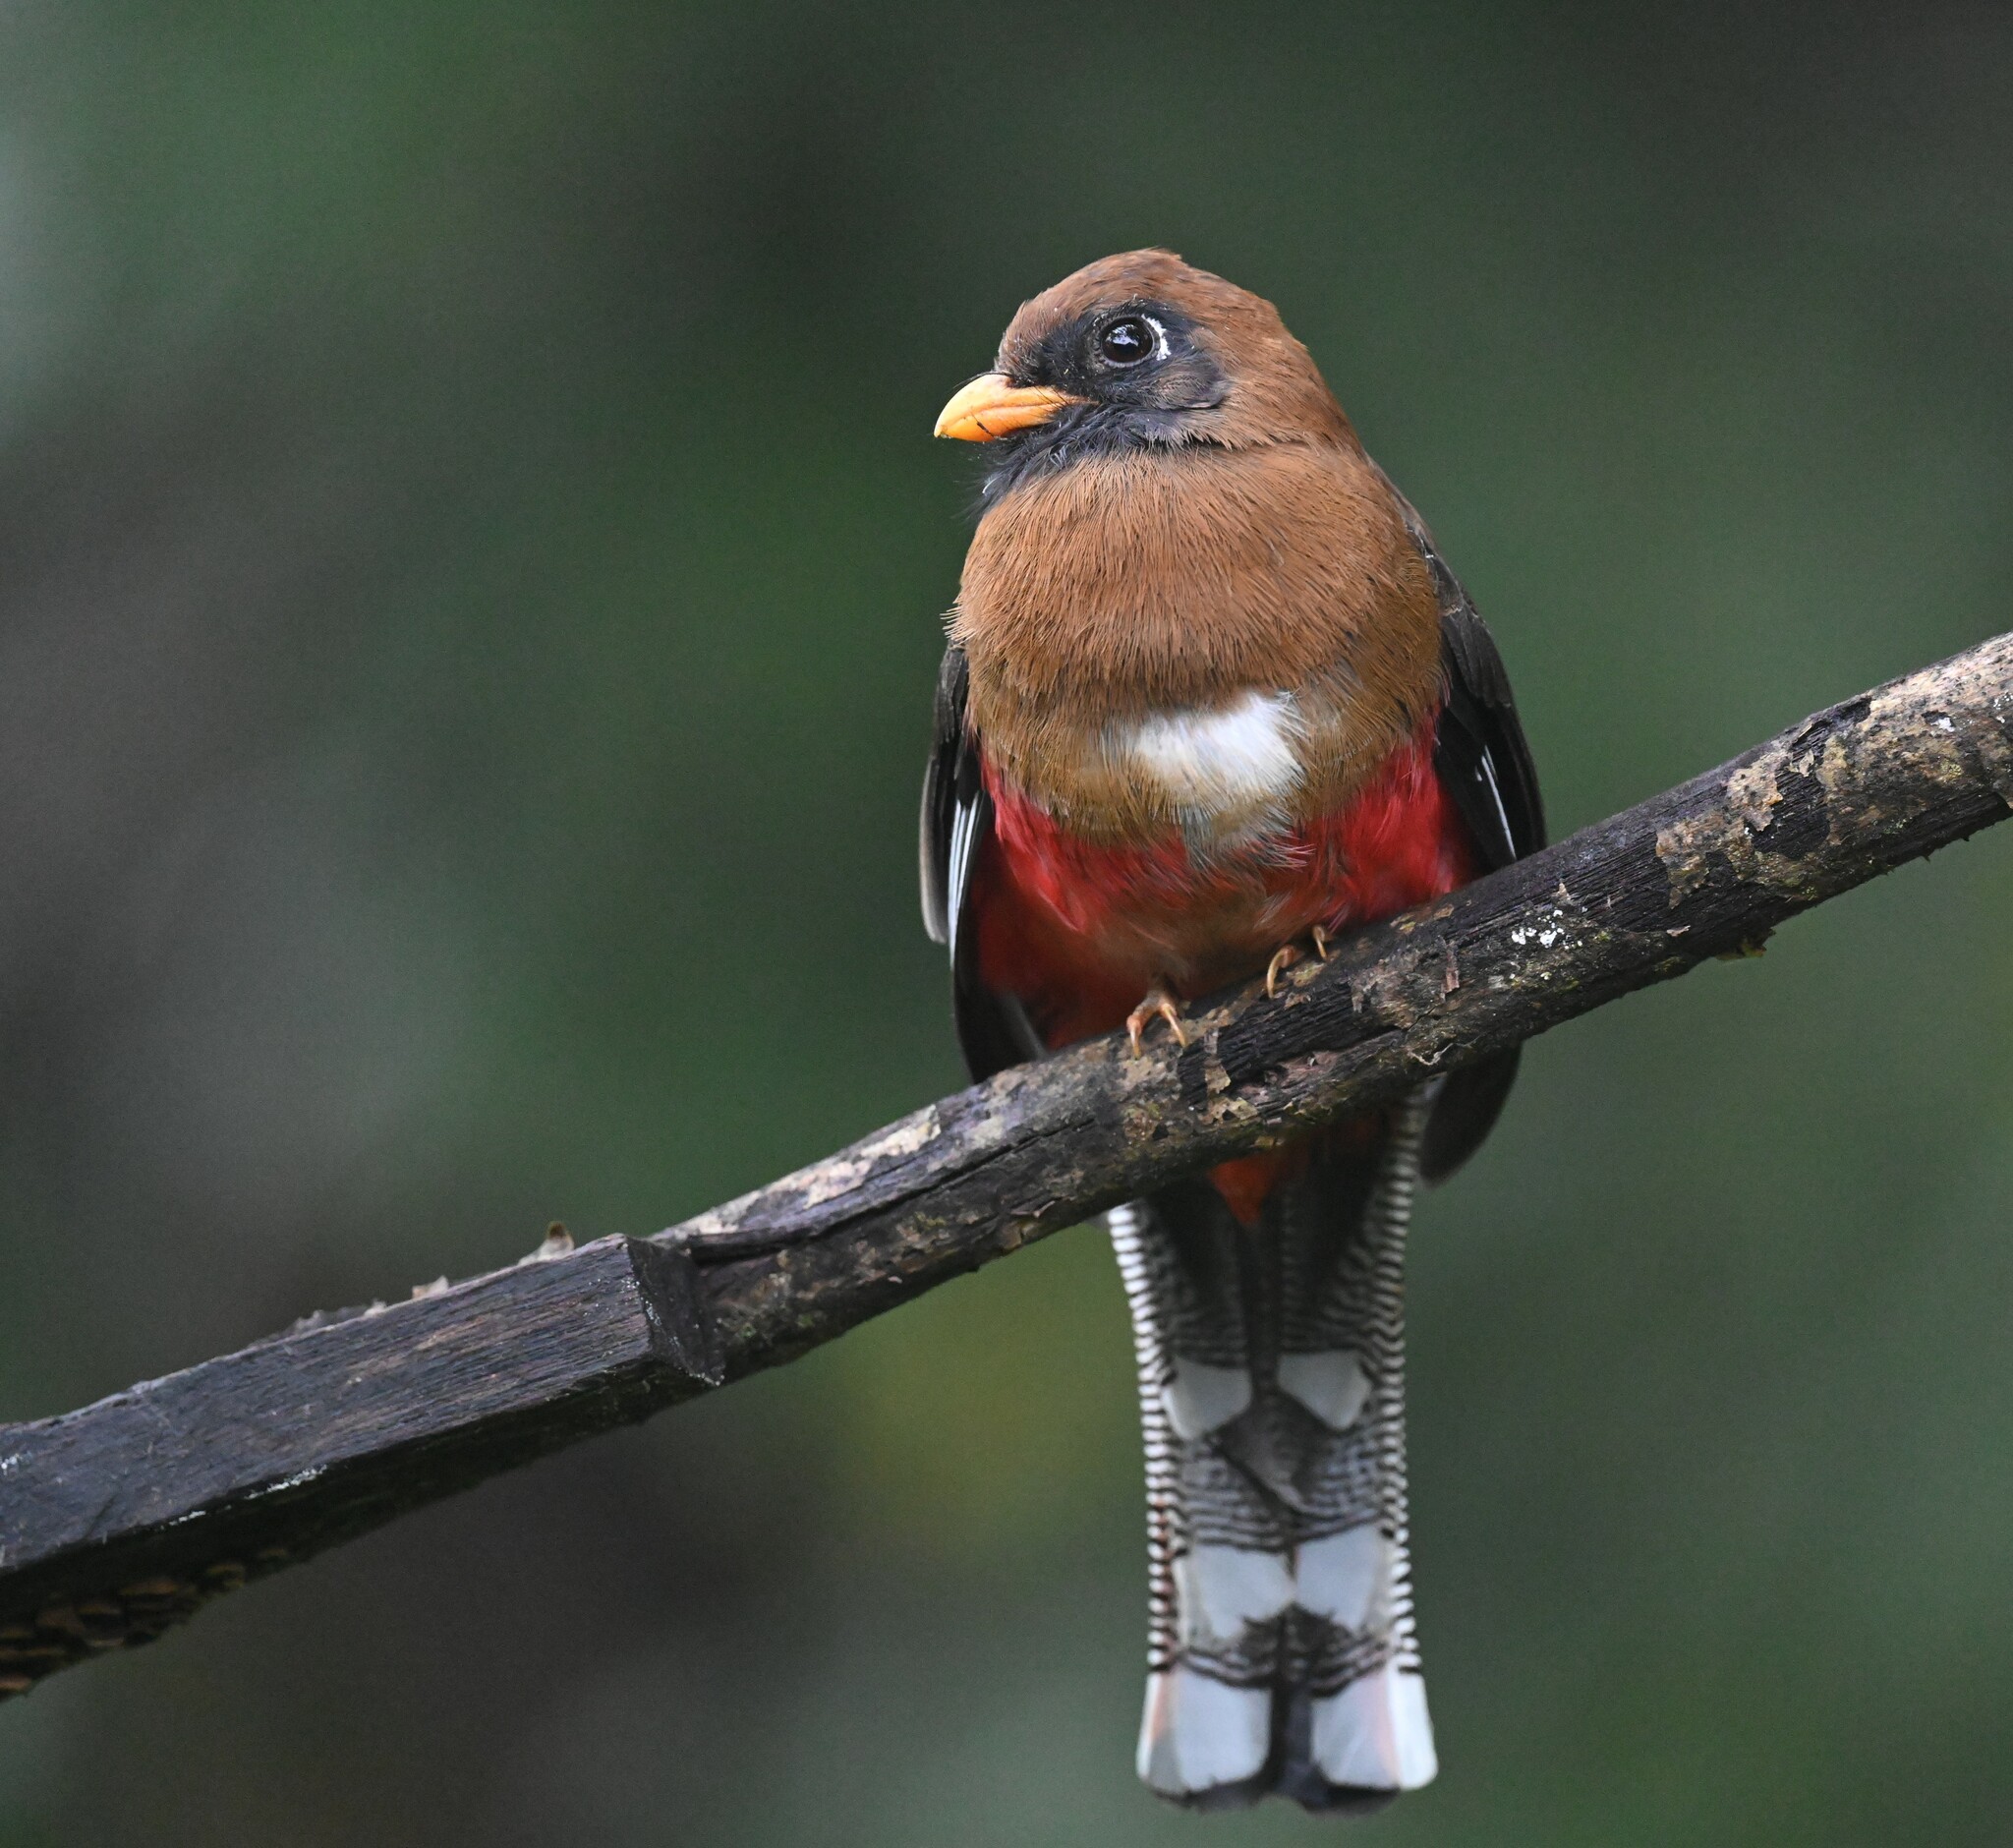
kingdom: Animalia
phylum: Chordata
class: Aves
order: Trogoniformes
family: Trogonidae
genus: Trogon
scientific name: Trogon personatus
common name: Masked trogon
